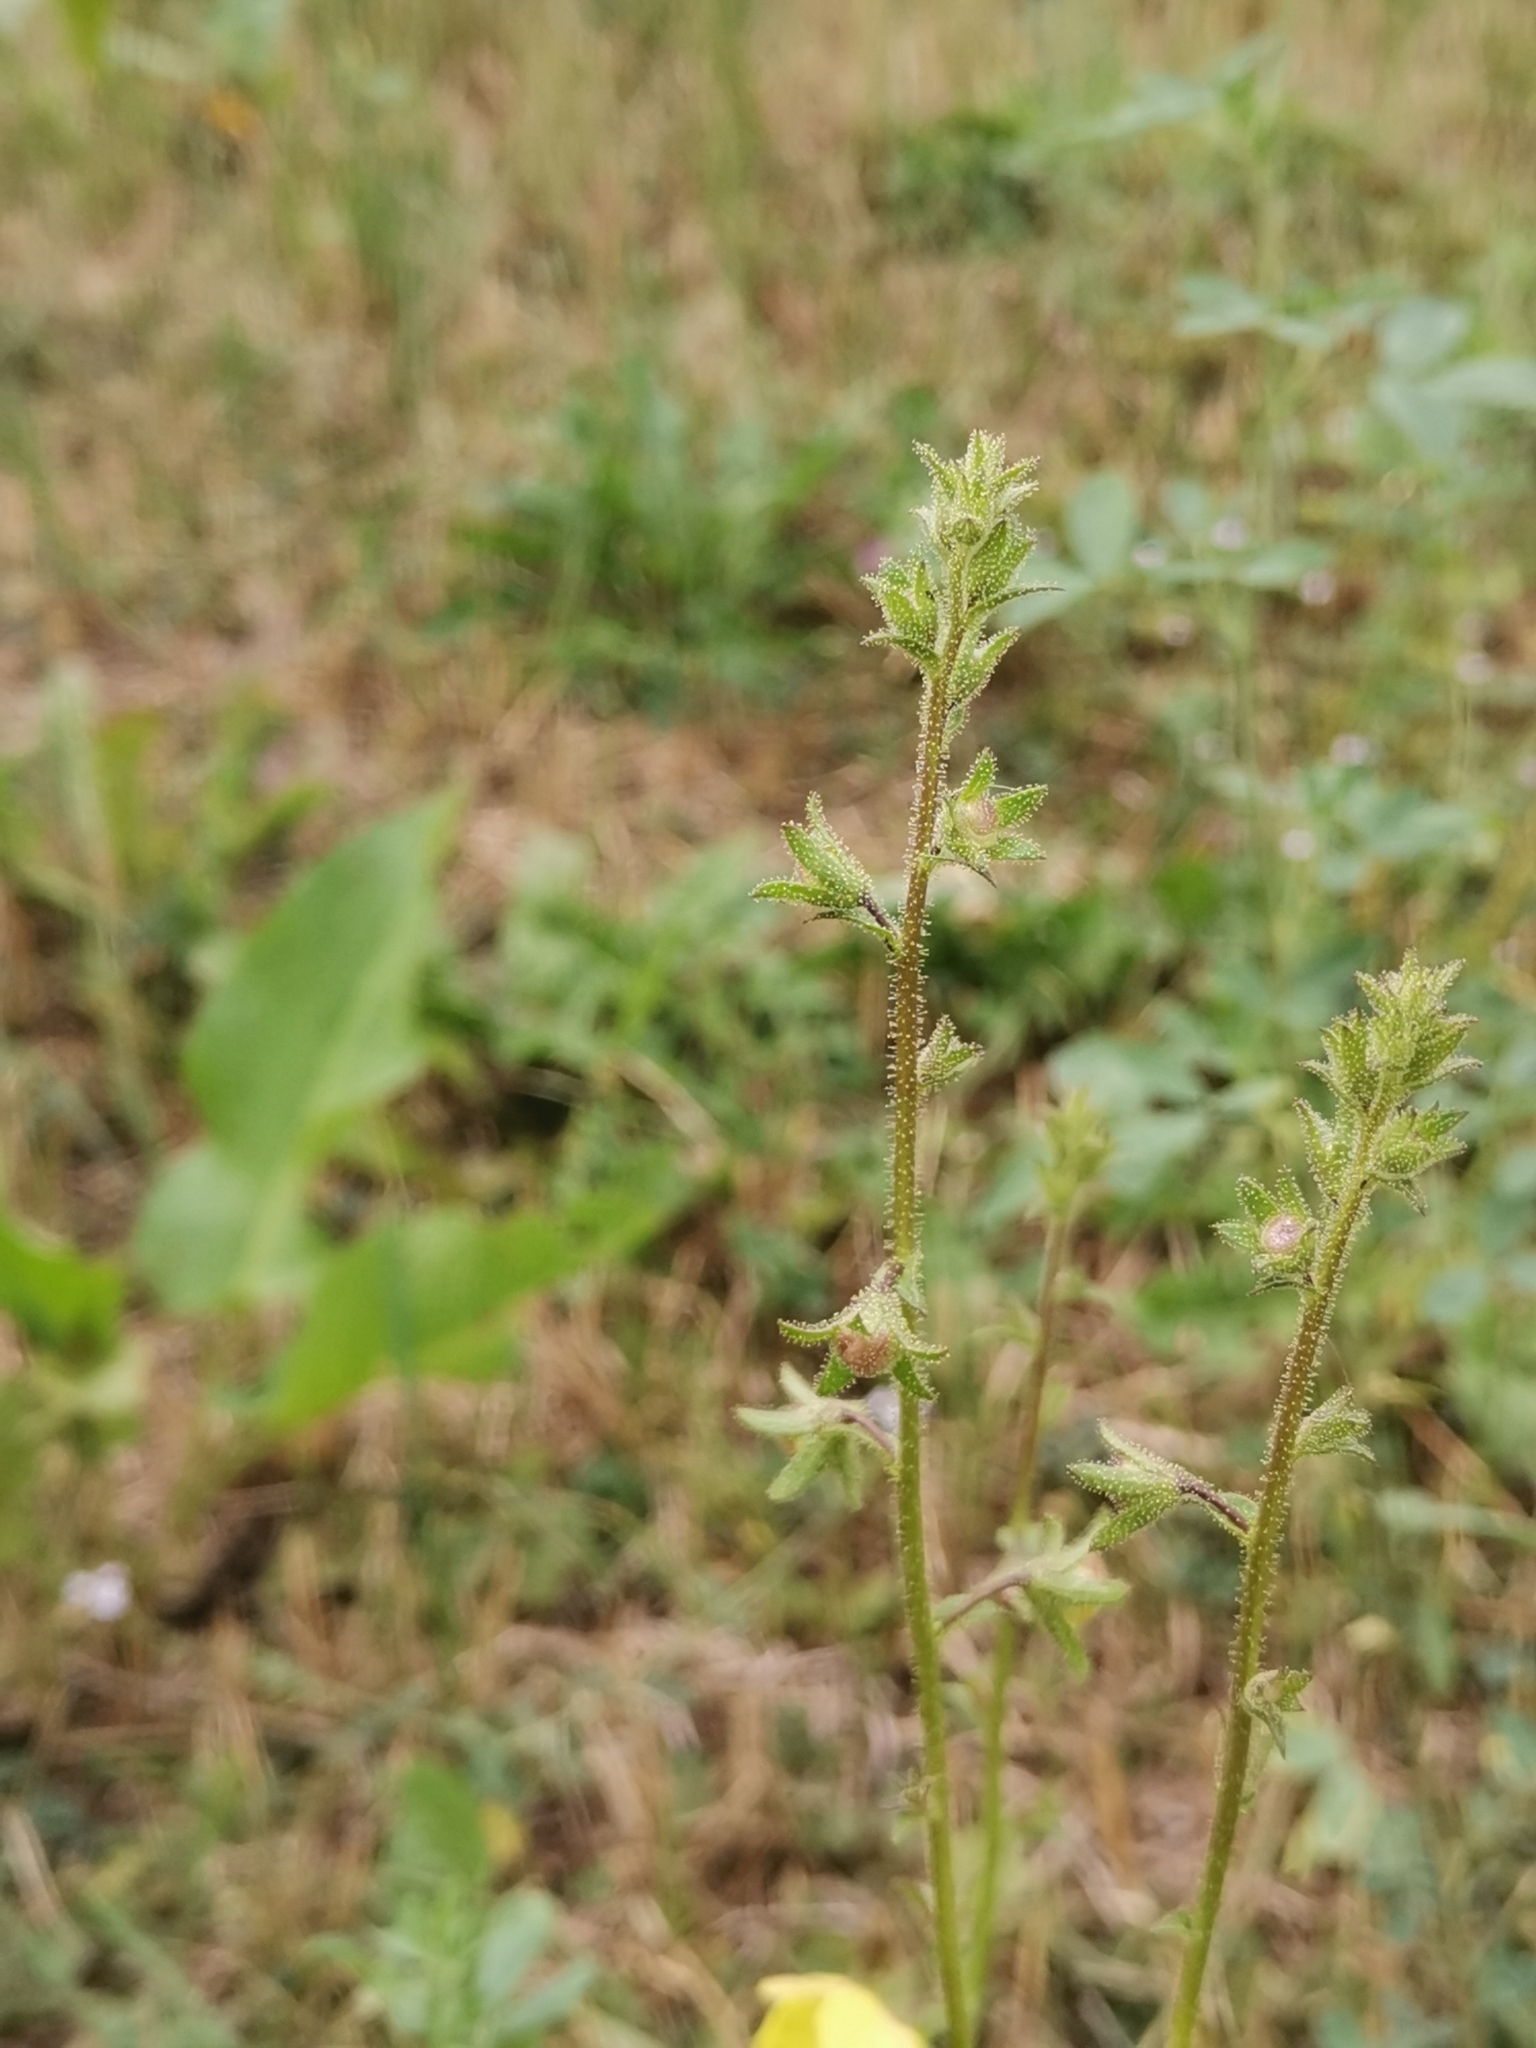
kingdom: Plantae
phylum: Tracheophyta
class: Magnoliopsida
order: Lamiales
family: Scrophulariaceae
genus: Verbascum
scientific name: Verbascum blattaria
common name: Moth mullein
